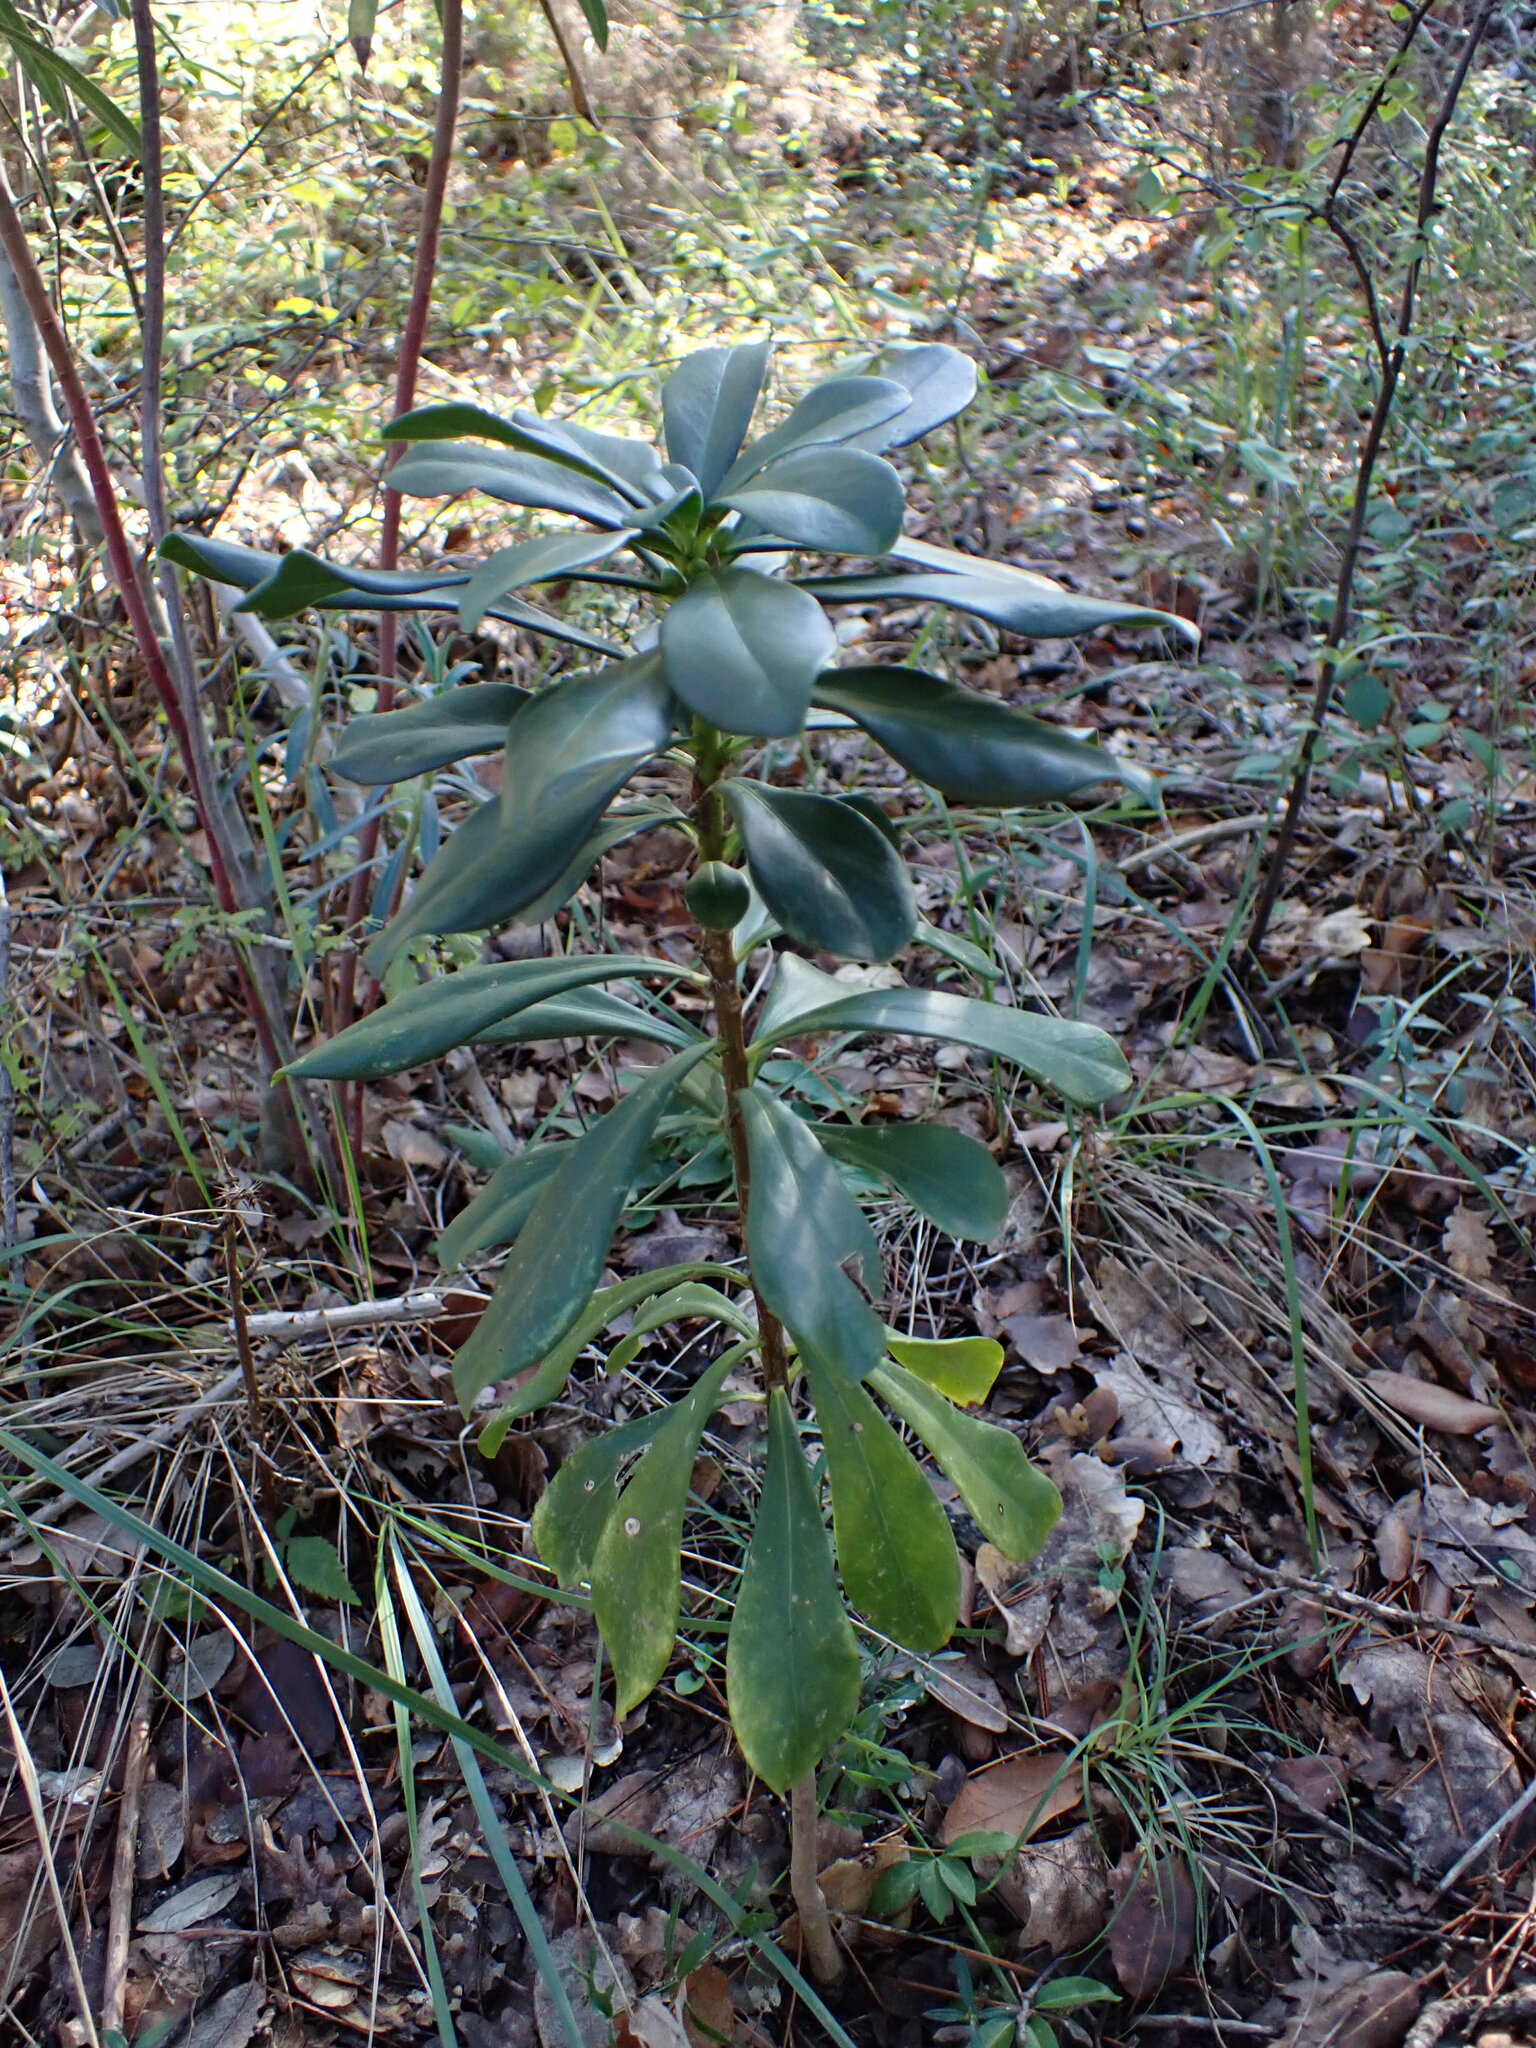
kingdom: Plantae
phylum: Tracheophyta
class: Magnoliopsida
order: Malvales
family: Thymelaeaceae
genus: Daphne
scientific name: Daphne laureola
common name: Spurge-laurel
